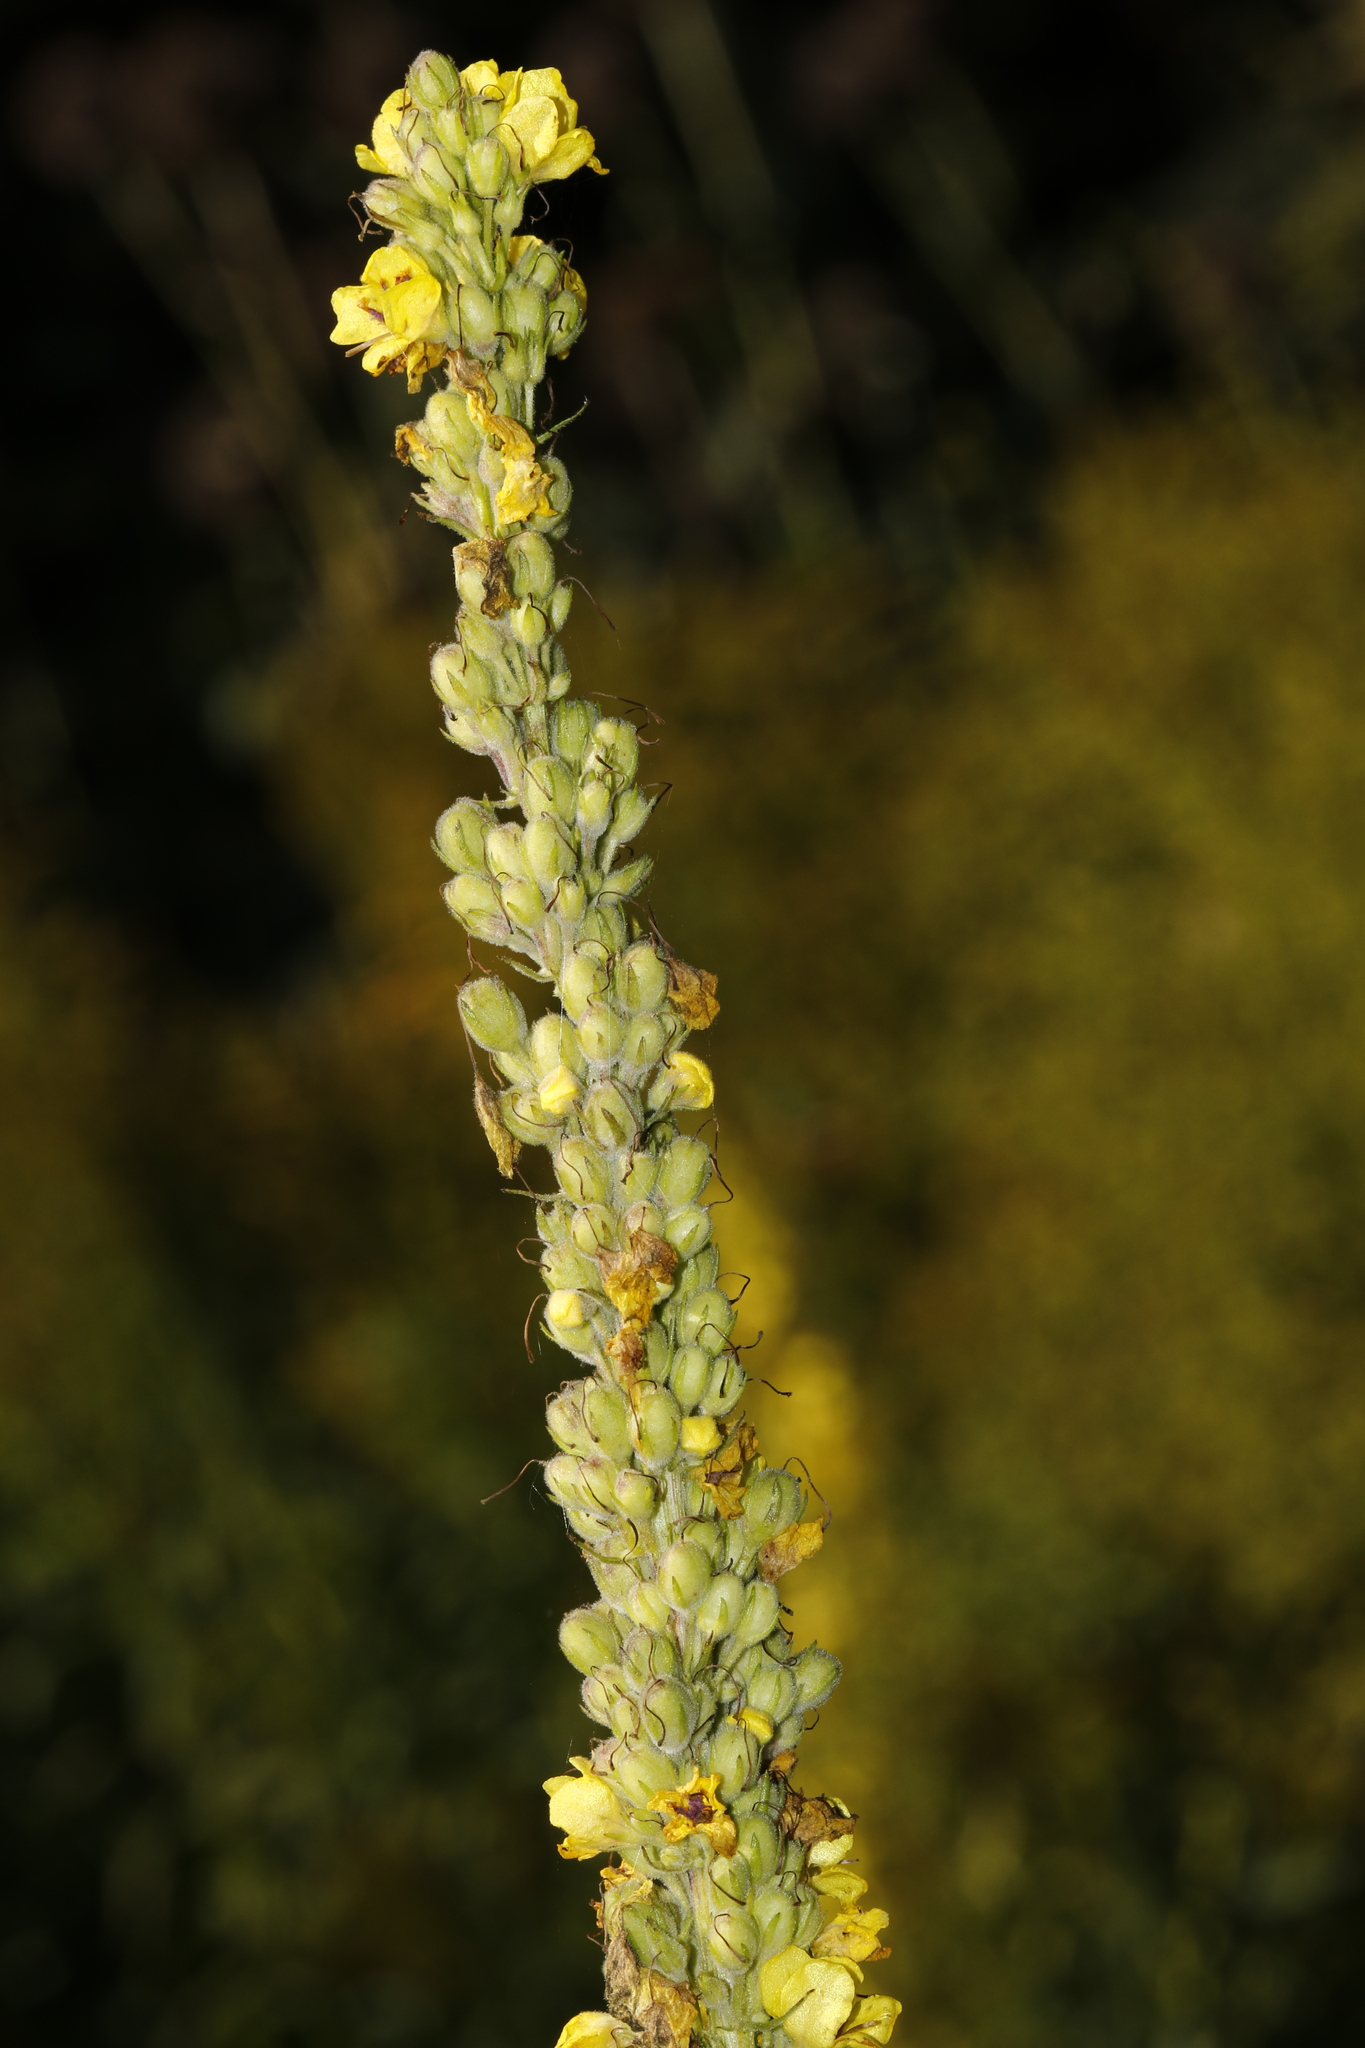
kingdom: Plantae
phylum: Tracheophyta
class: Magnoliopsida
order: Lamiales
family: Scrophulariaceae
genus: Verbascum
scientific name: Verbascum nigrum
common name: Dark mullein
